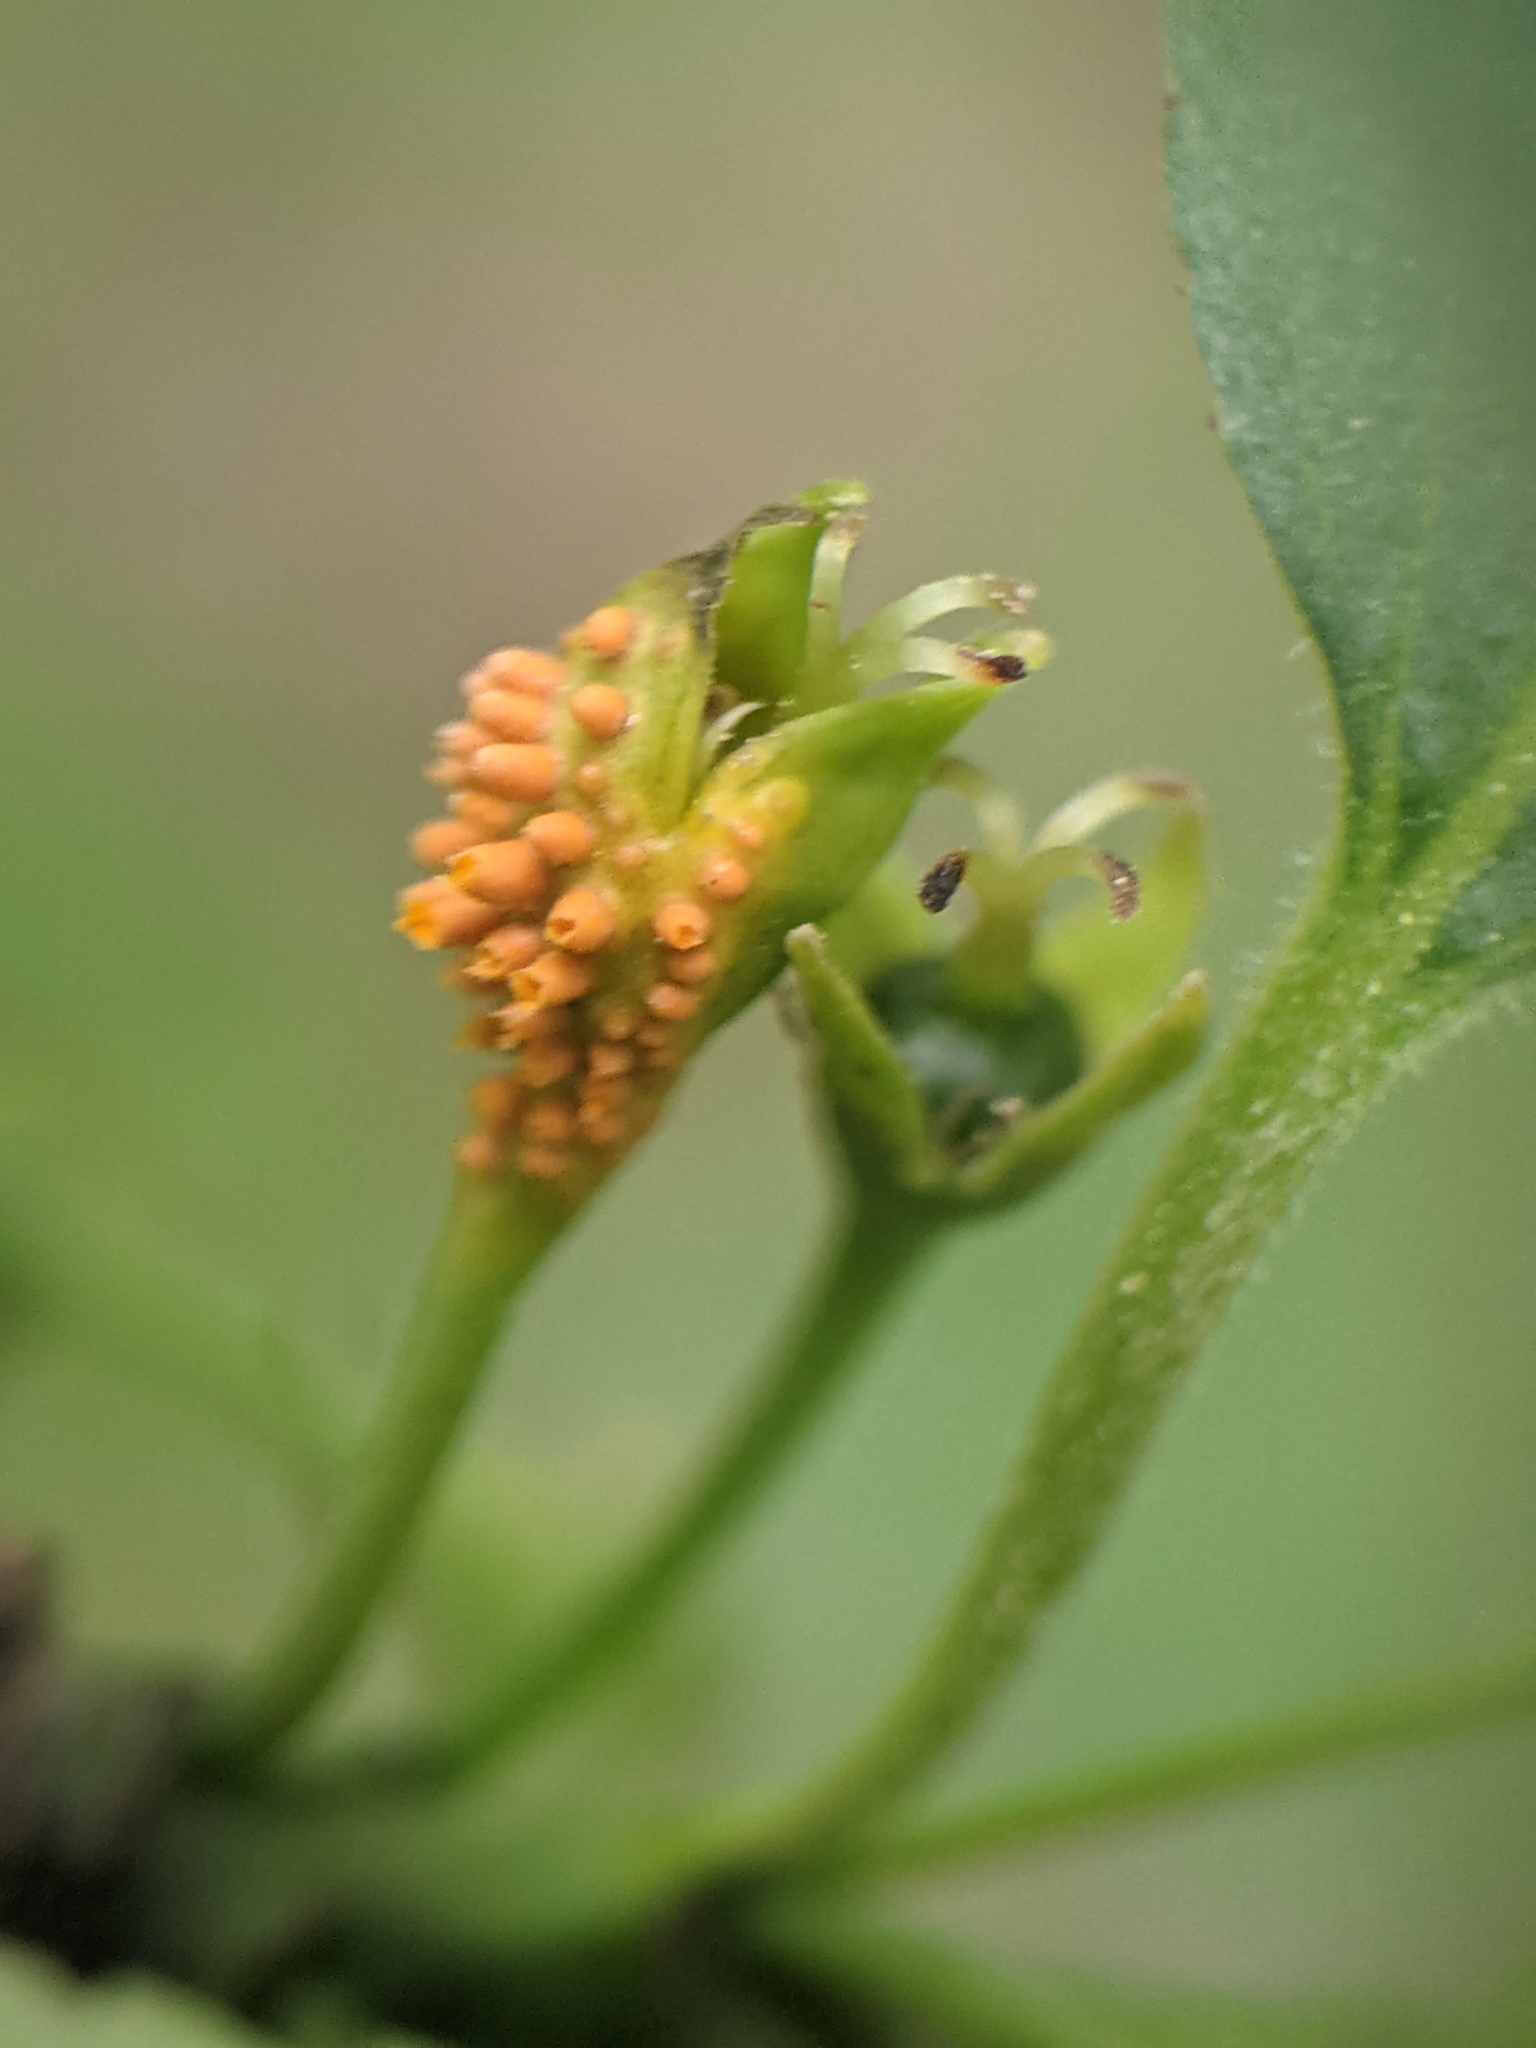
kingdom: Fungi
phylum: Basidiomycota
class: Pucciniomycetes
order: Pucciniales
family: Pucciniaceae
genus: Puccinia
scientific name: Puccinia coronata
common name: Crown rust
